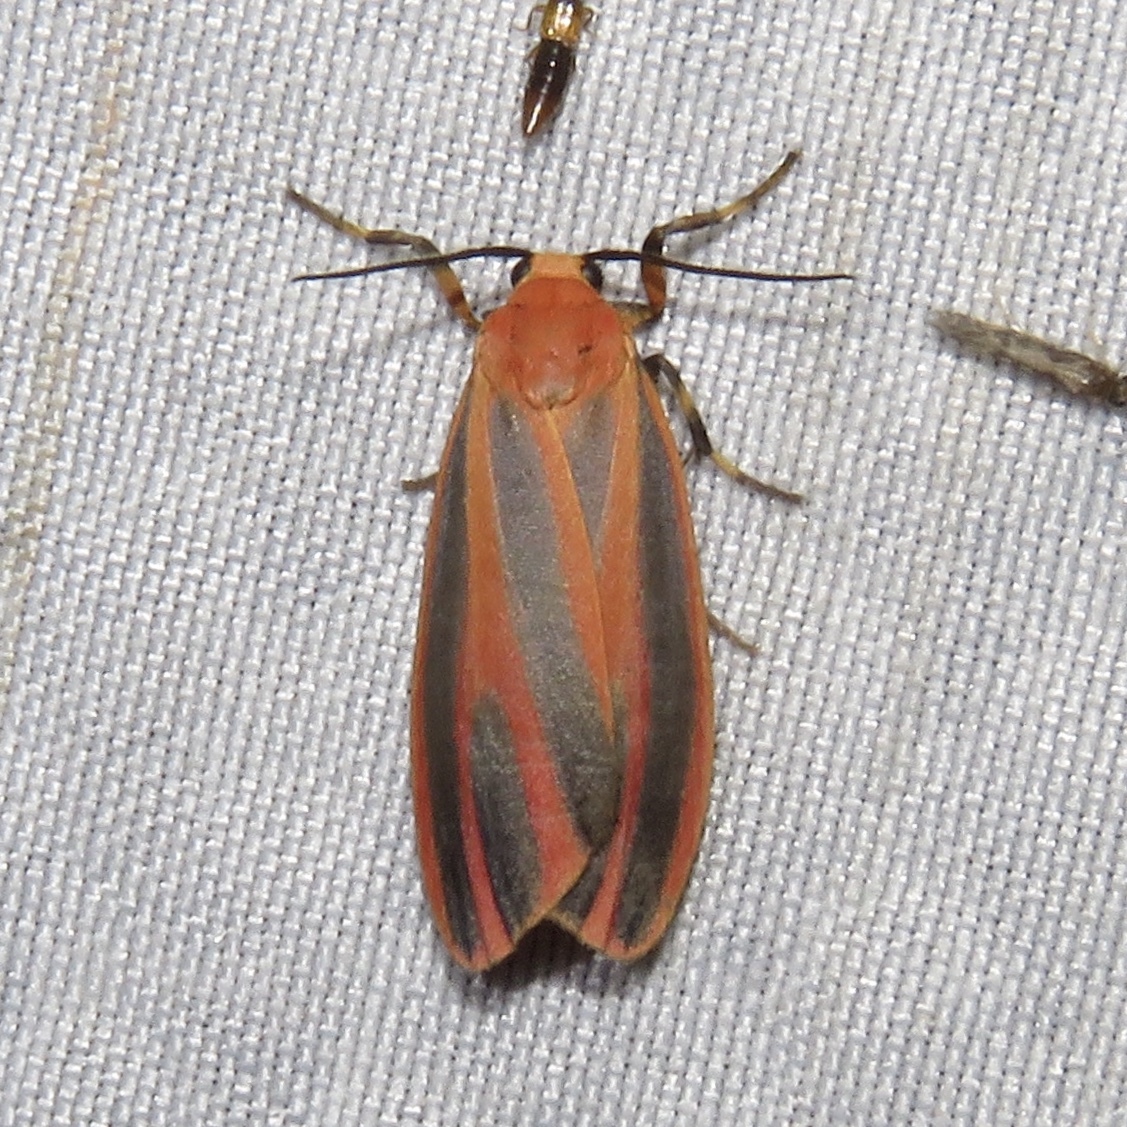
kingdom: Animalia
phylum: Arthropoda
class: Insecta
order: Lepidoptera
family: Erebidae
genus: Hypoprepia
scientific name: Hypoprepia miniata
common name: Scarlet-winged lichen moth
